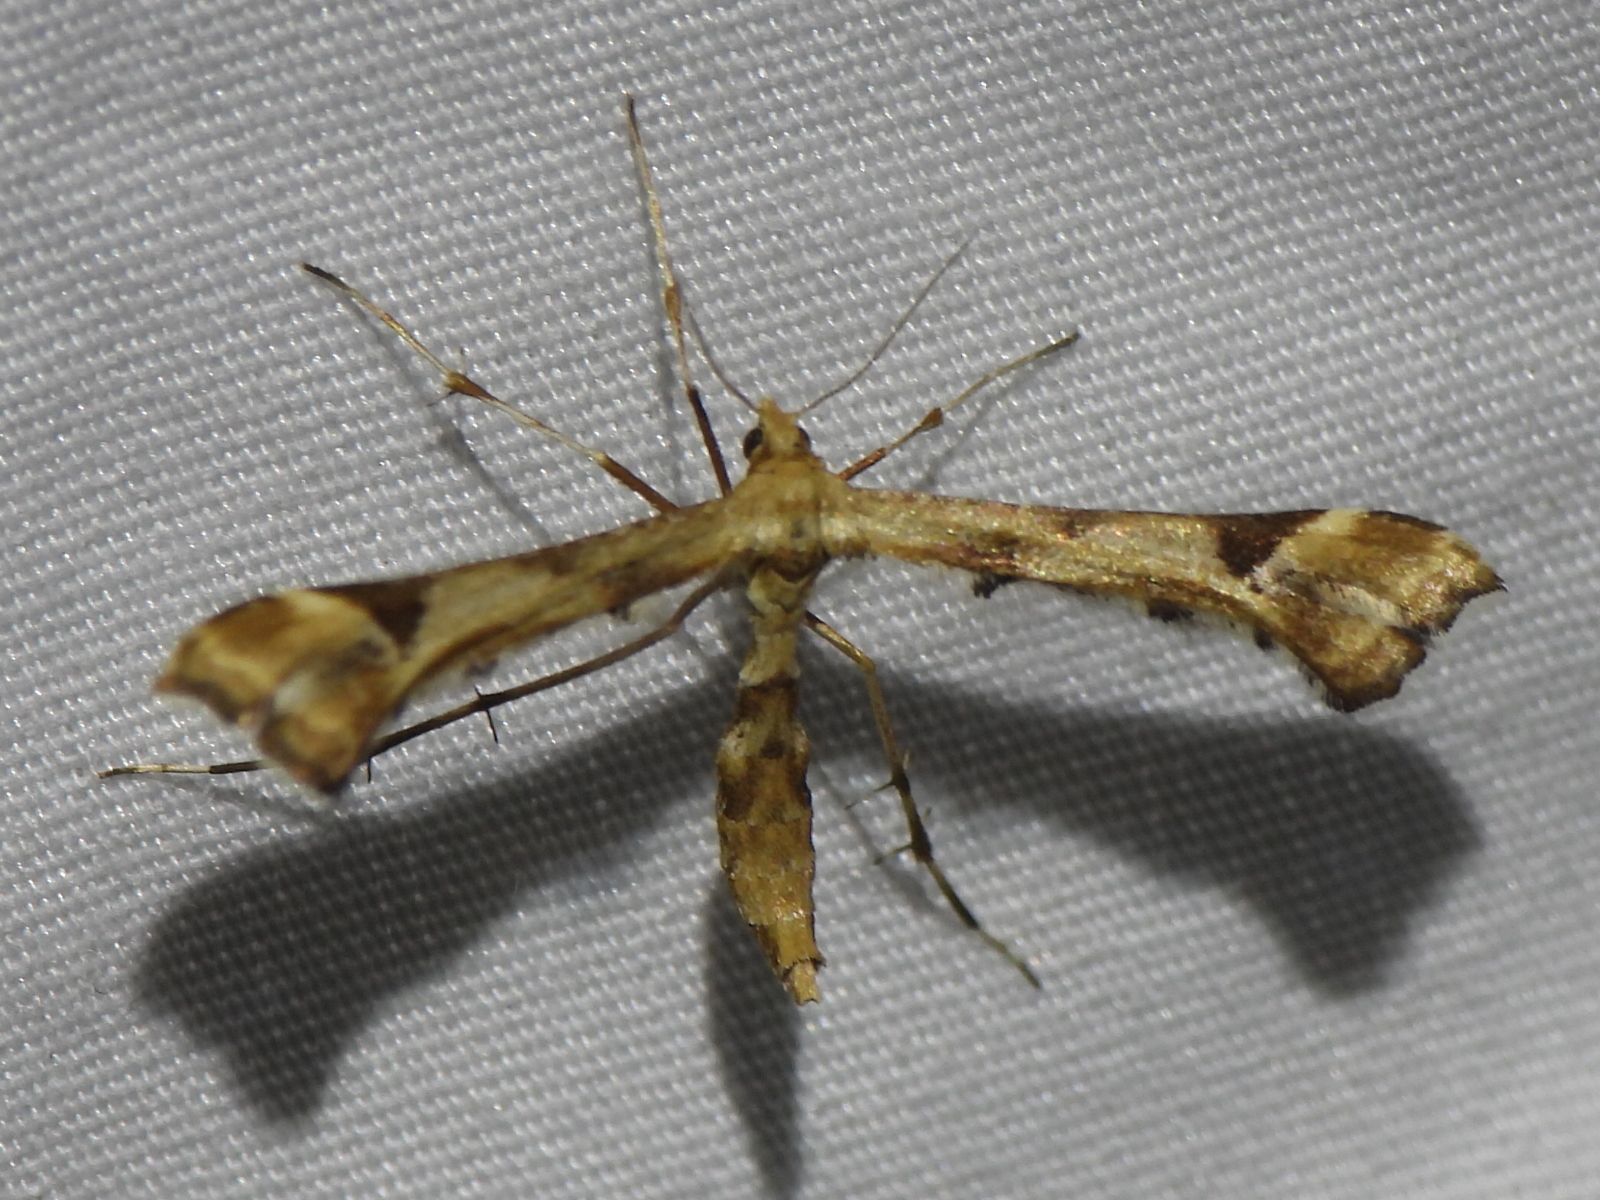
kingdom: Animalia
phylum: Arthropoda
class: Insecta
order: Lepidoptera
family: Pterophoridae
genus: Platyptilia
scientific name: Platyptilia carduidactylus
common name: Artichoke plume moth
